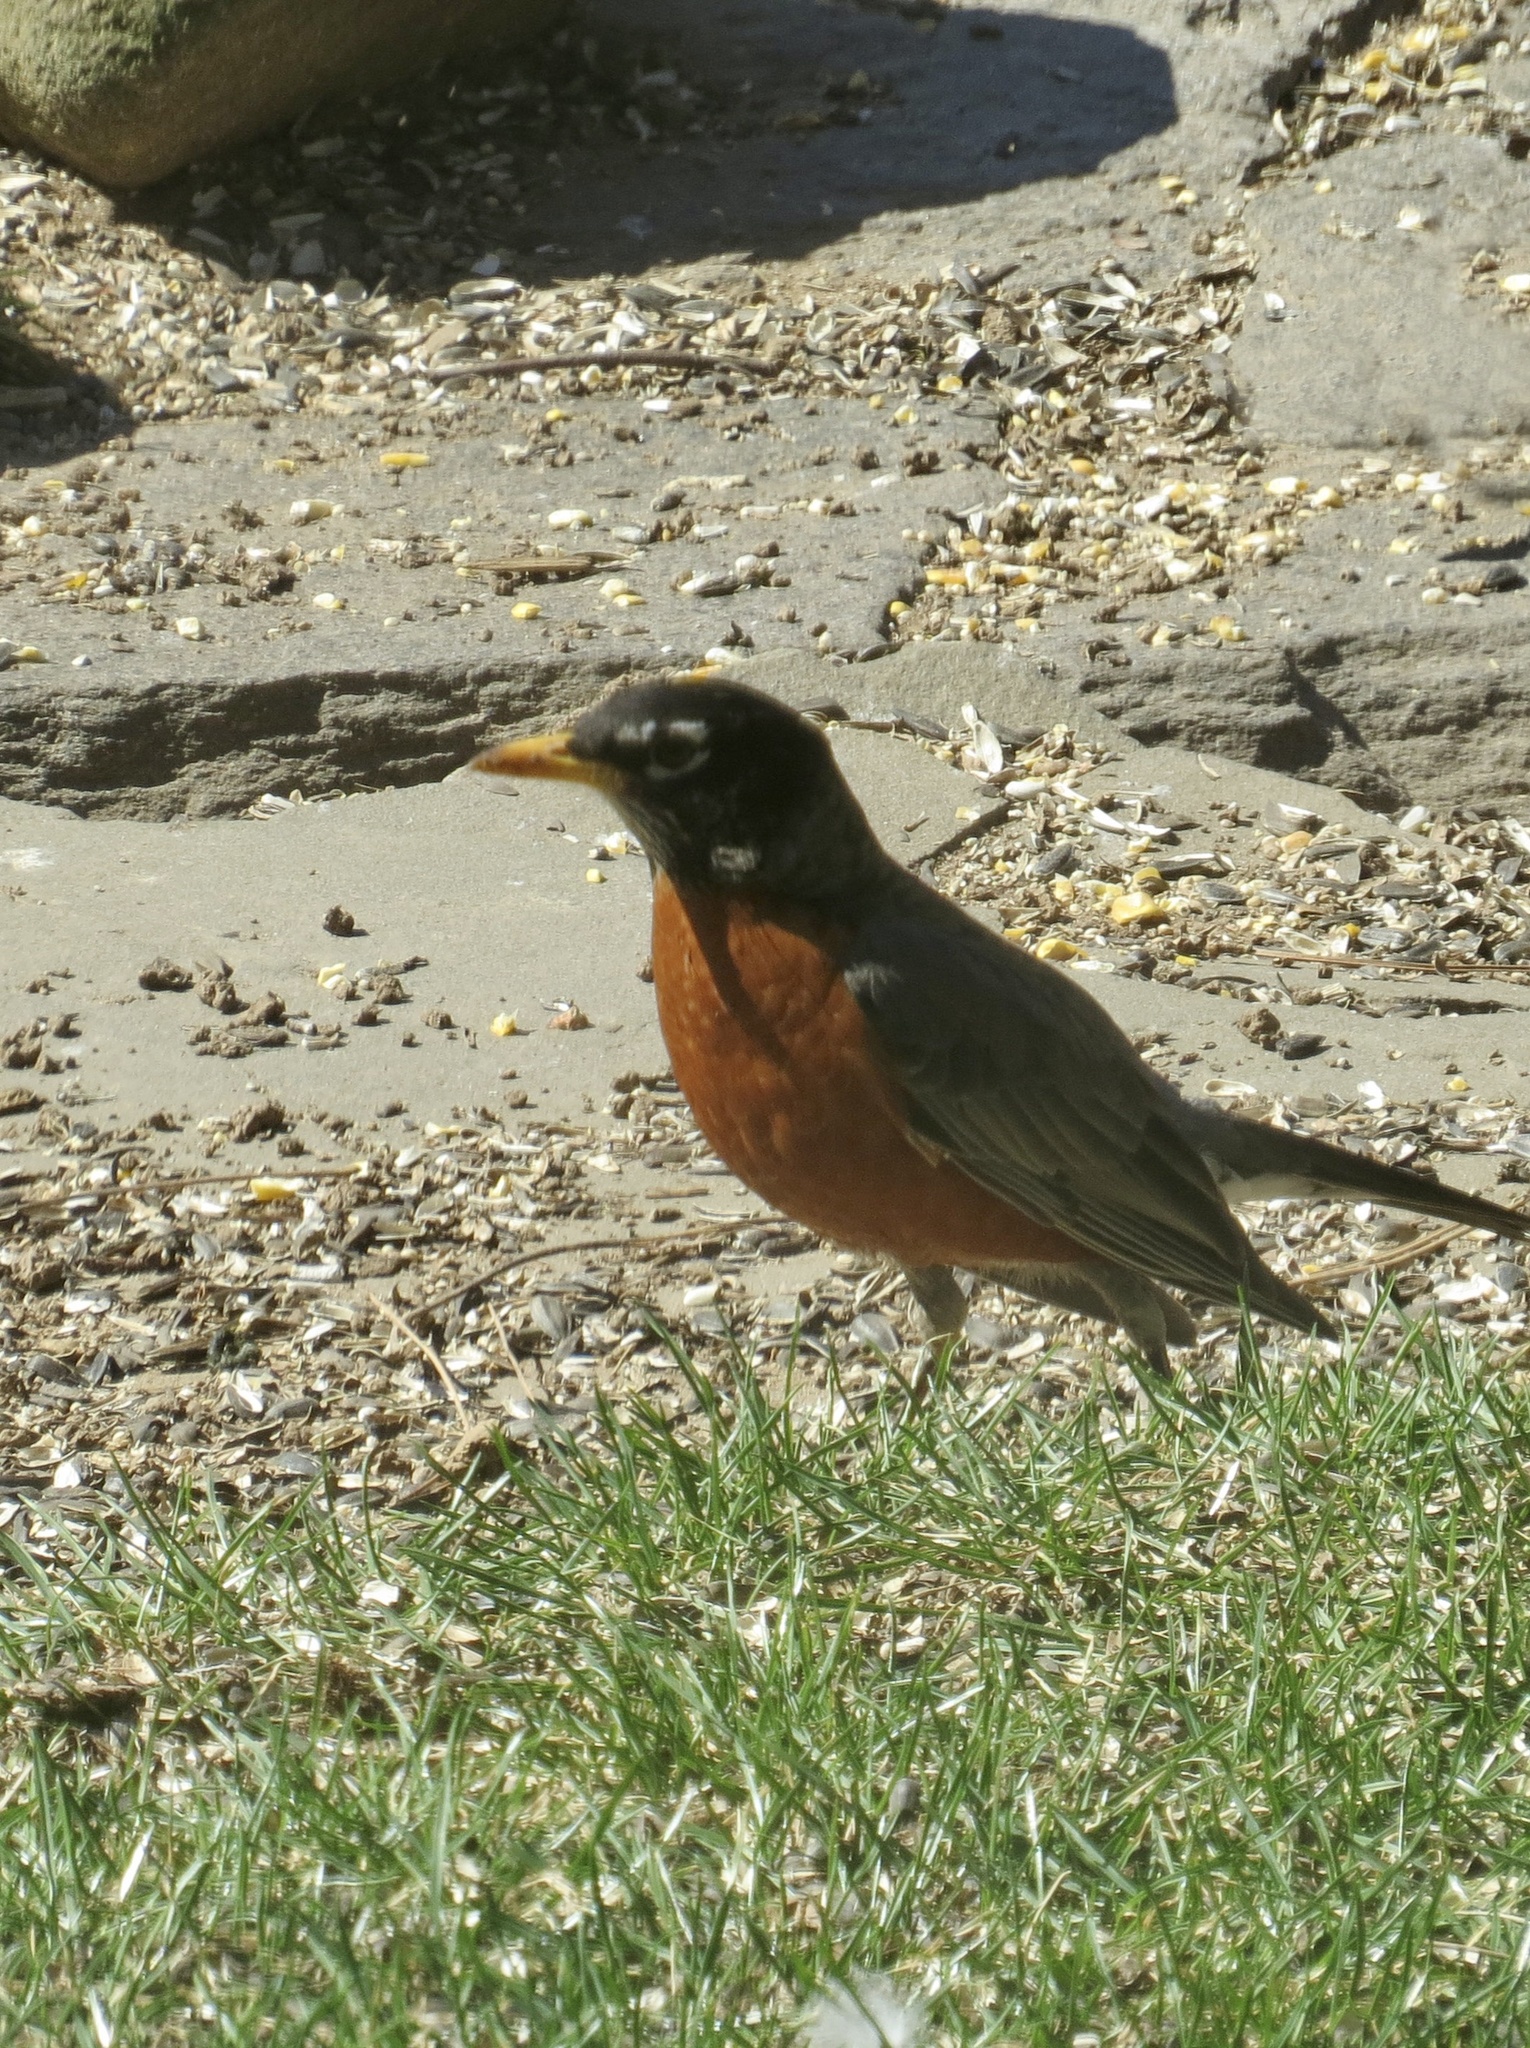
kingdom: Animalia
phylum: Chordata
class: Aves
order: Passeriformes
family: Turdidae
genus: Turdus
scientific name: Turdus migratorius
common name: American robin
